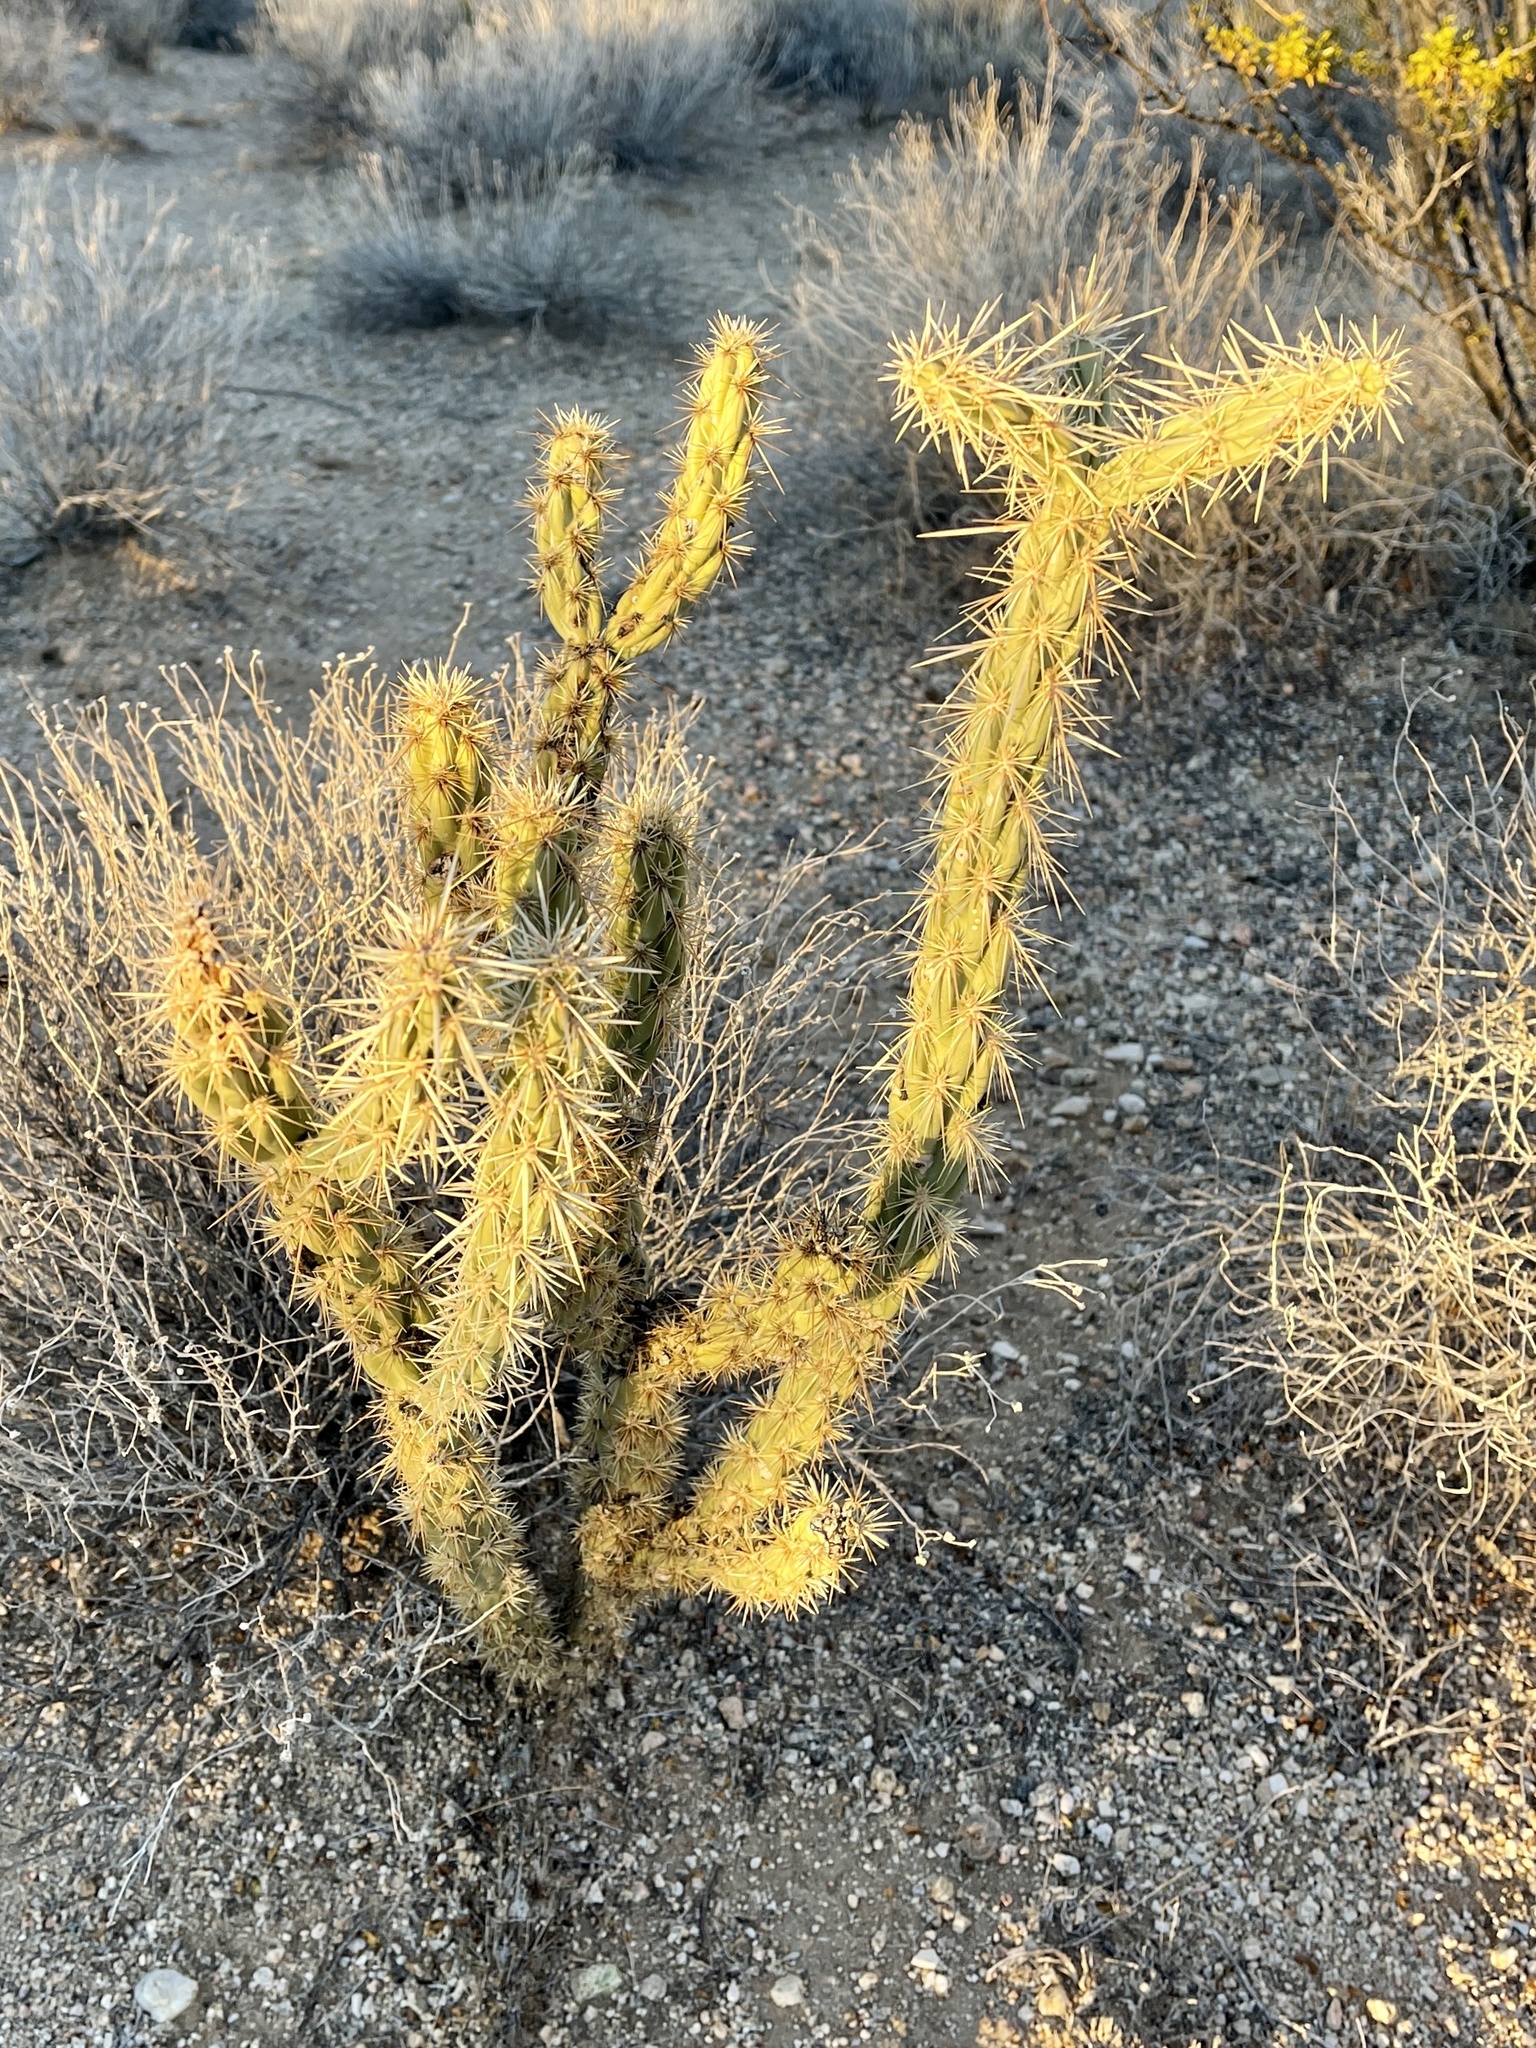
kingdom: Plantae
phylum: Tracheophyta
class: Magnoliopsida
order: Caryophyllales
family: Cactaceae
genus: Cylindropuntia
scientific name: Cylindropuntia acanthocarpa
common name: Buckhorn cholla
